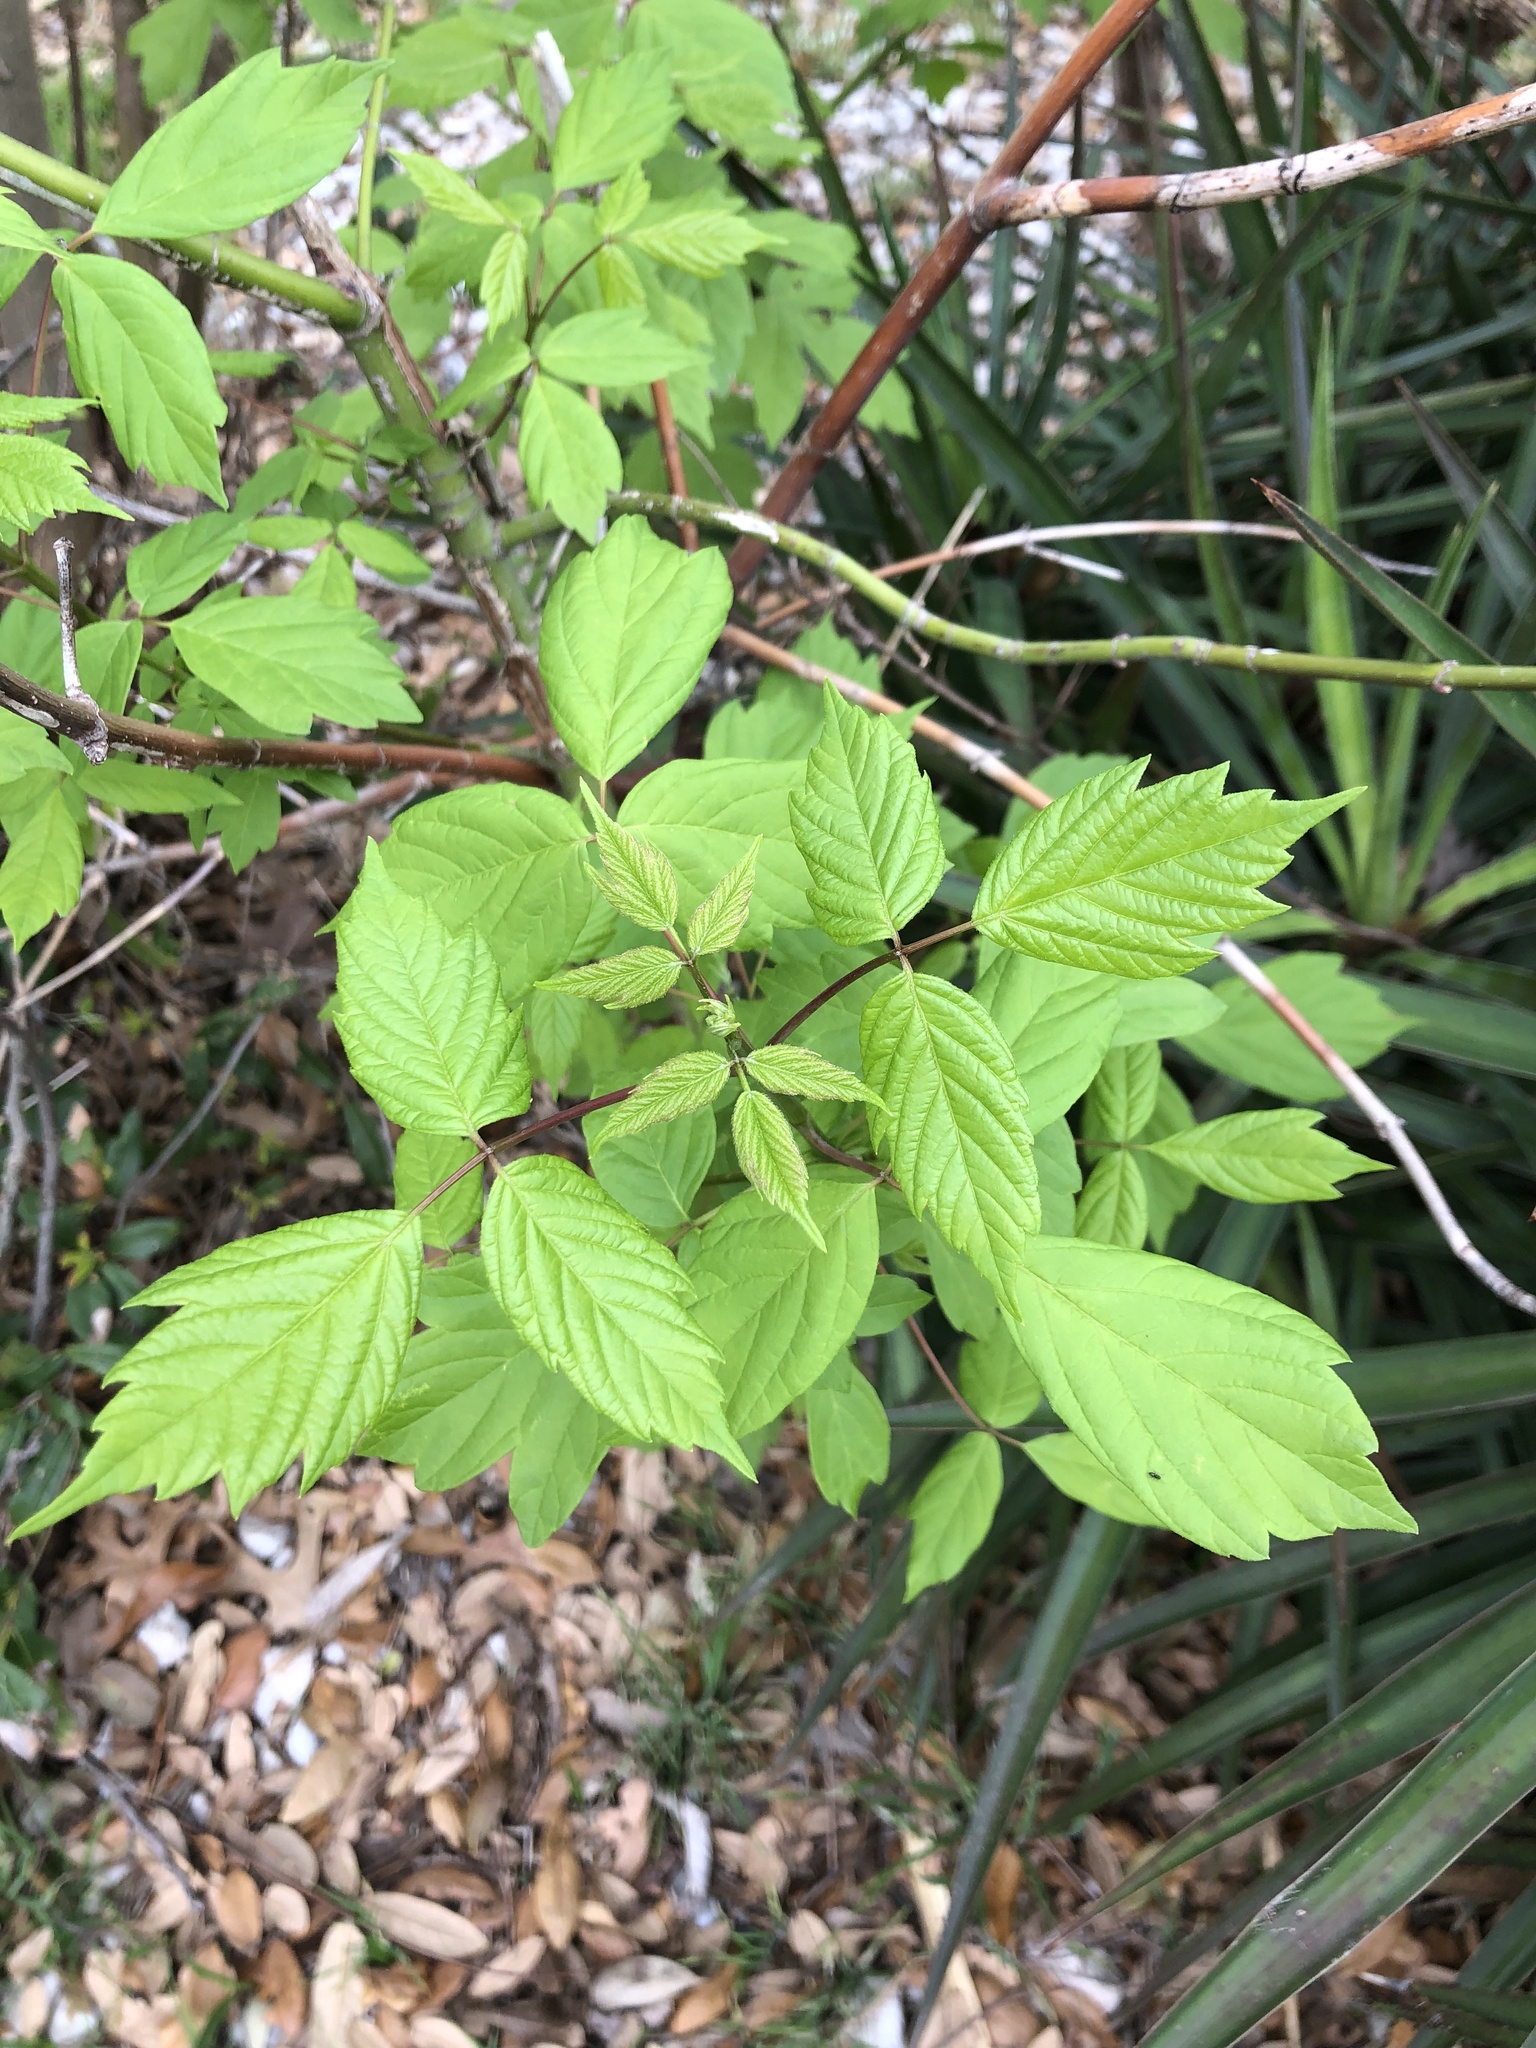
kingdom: Plantae
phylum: Tracheophyta
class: Magnoliopsida
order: Sapindales
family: Sapindaceae
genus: Acer
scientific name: Acer negundo
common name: Ashleaf maple
